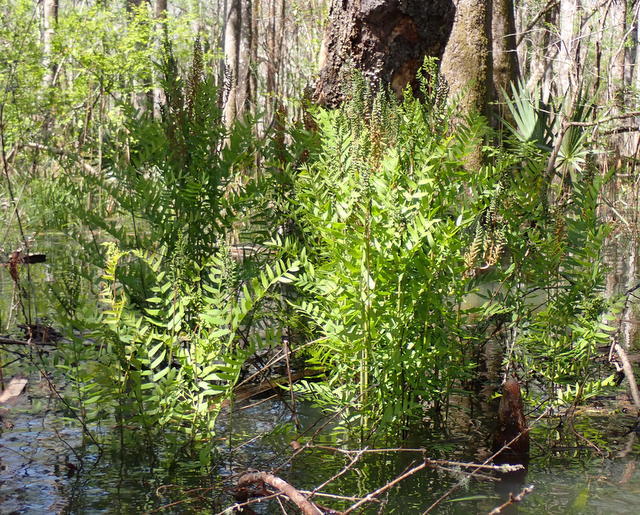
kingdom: Plantae
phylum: Tracheophyta
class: Polypodiopsida
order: Osmundales
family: Osmundaceae
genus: Osmunda
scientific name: Osmunda spectabilis
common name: American royal fern
